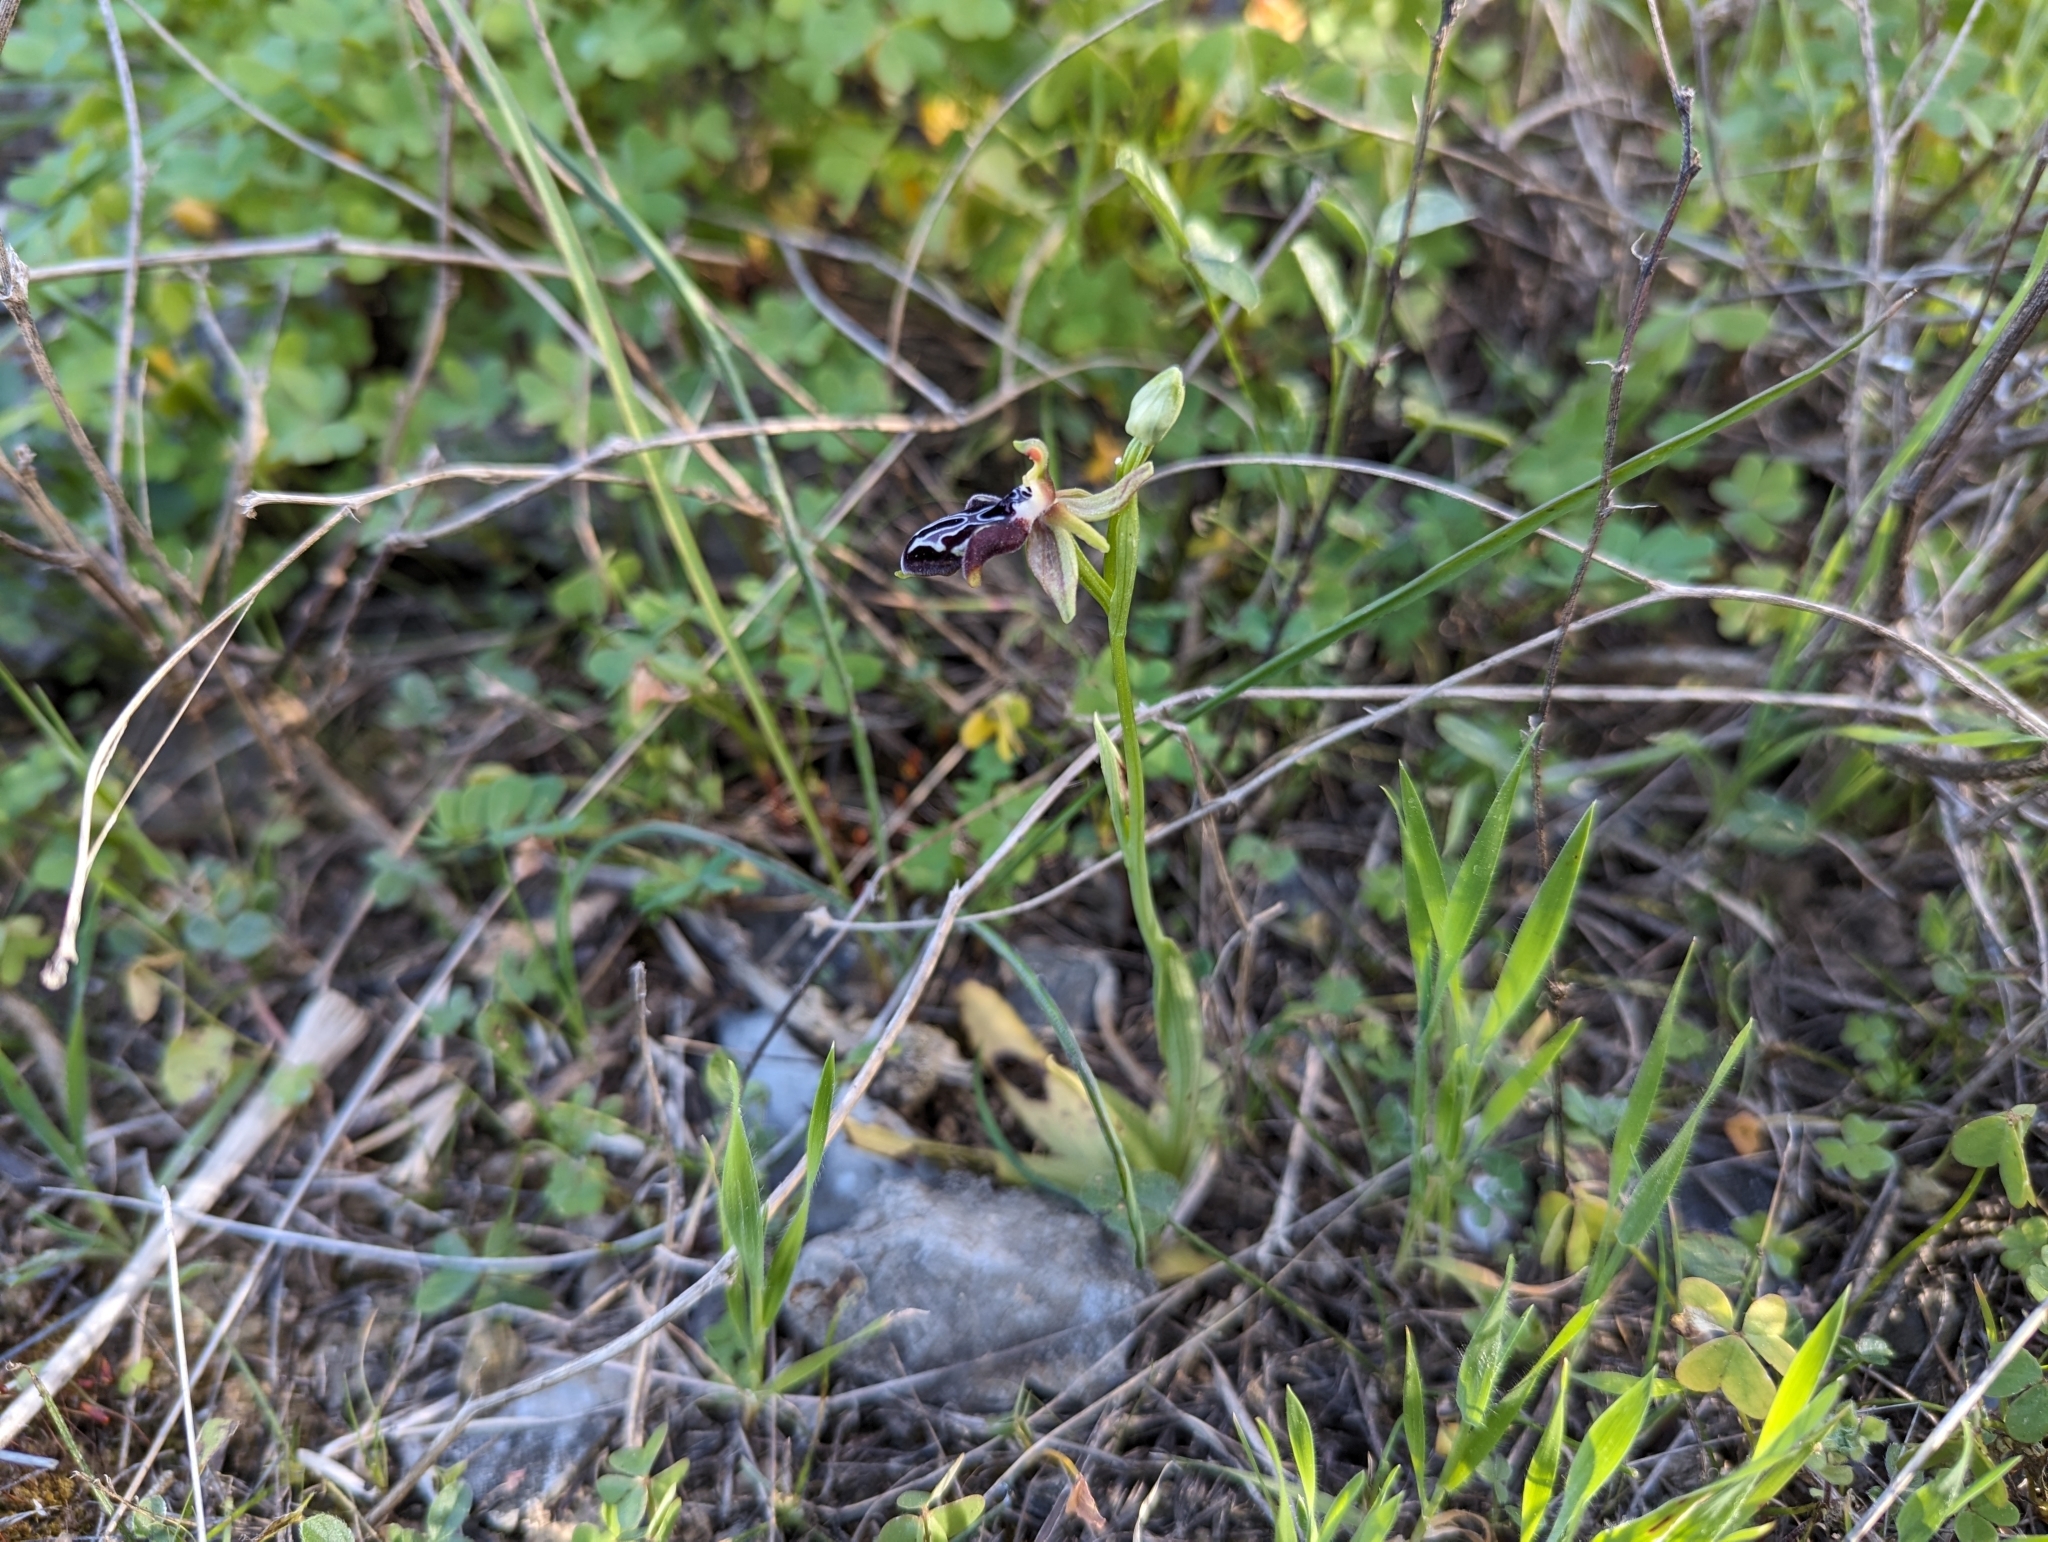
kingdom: Plantae
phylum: Tracheophyta
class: Liliopsida
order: Asparagales
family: Orchidaceae
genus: Ophrys
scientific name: Ophrys cretica
